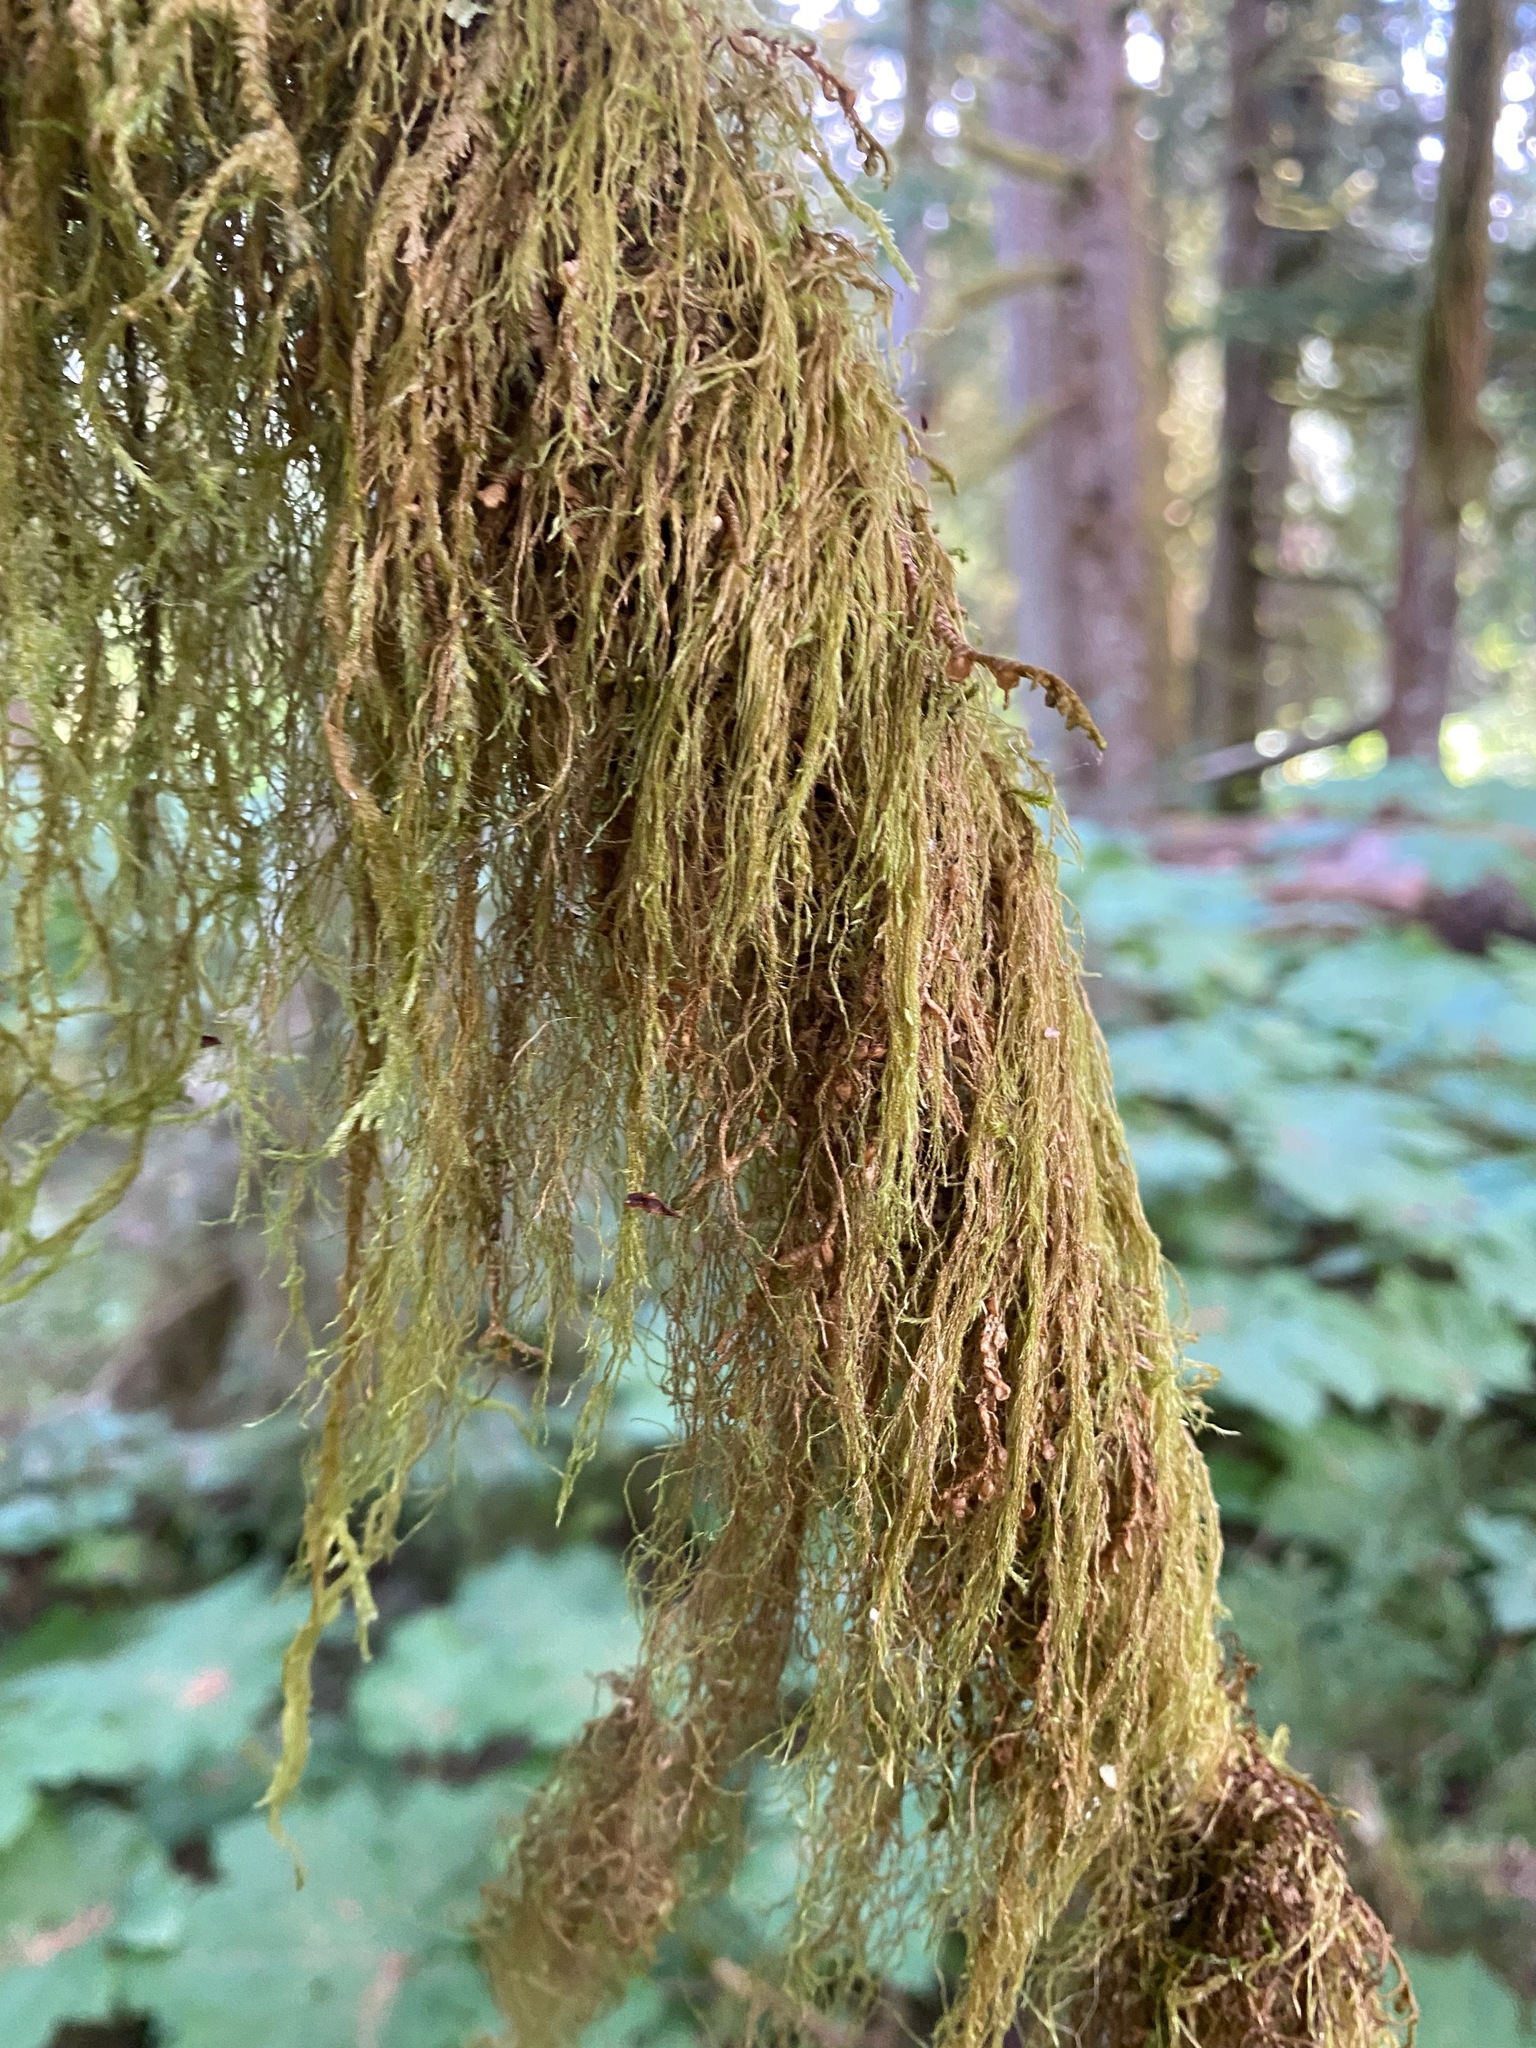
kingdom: Plantae
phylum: Bryophyta
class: Bryopsida
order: Hypnales
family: Lembophyllaceae
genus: Pseudisothecium
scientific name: Pseudisothecium stoloniferum
